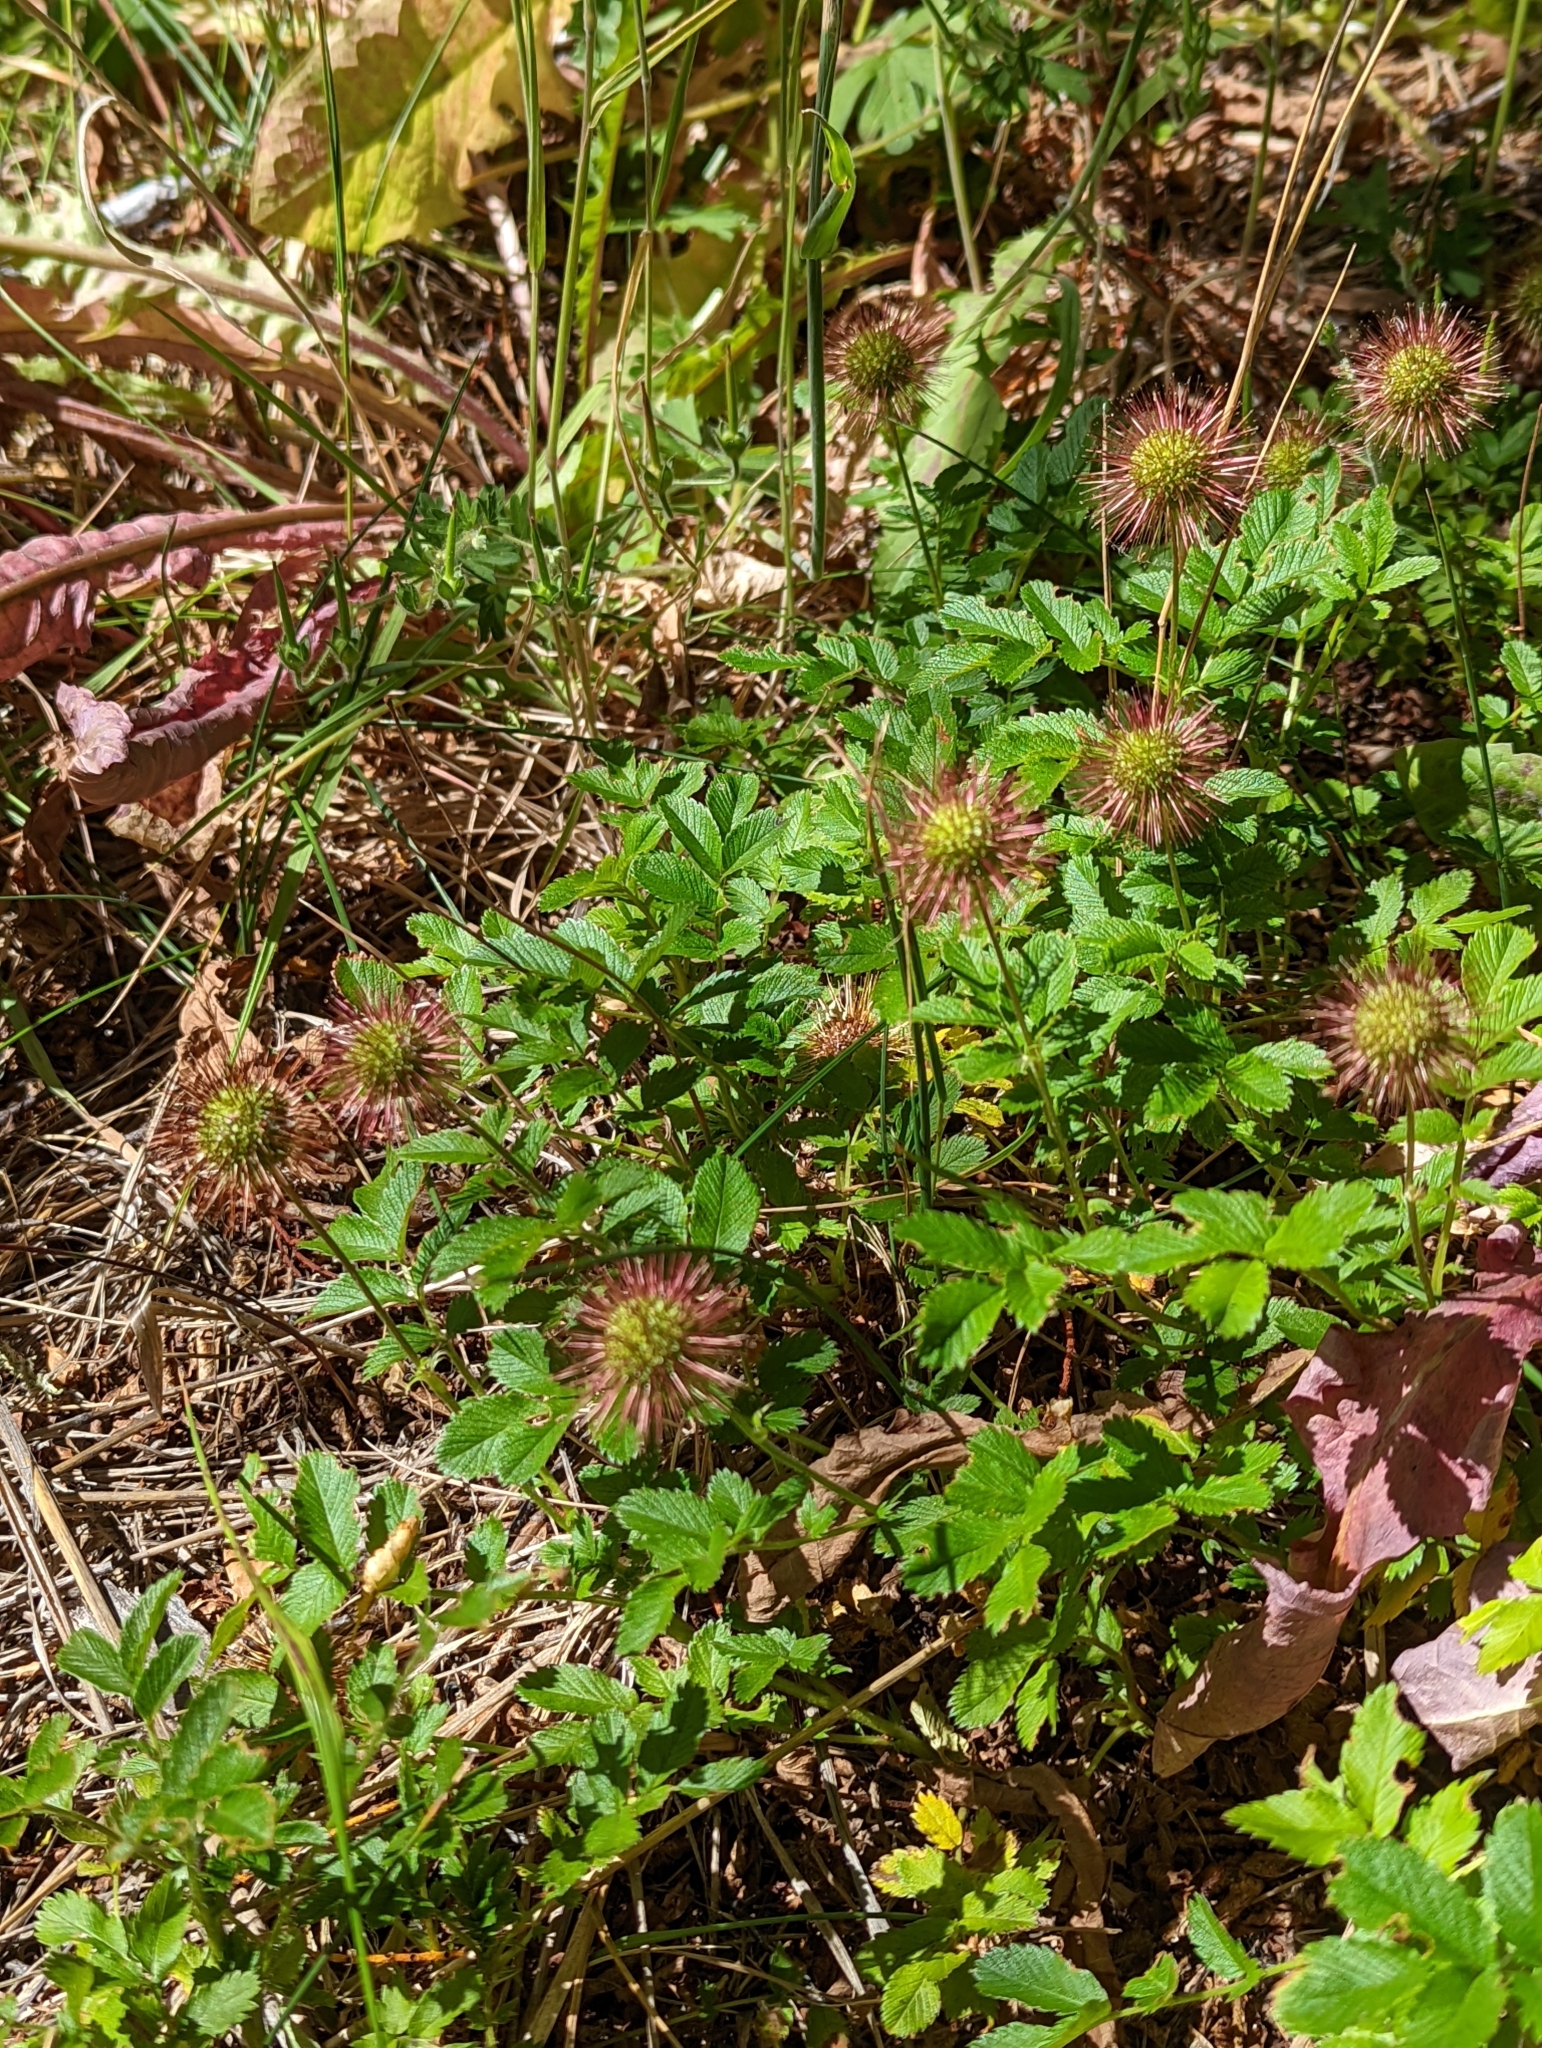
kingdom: Plantae
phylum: Tracheophyta
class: Magnoliopsida
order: Rosales
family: Rosaceae
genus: Acaena
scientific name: Acaena ovalifolia
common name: Two-spined acaena
